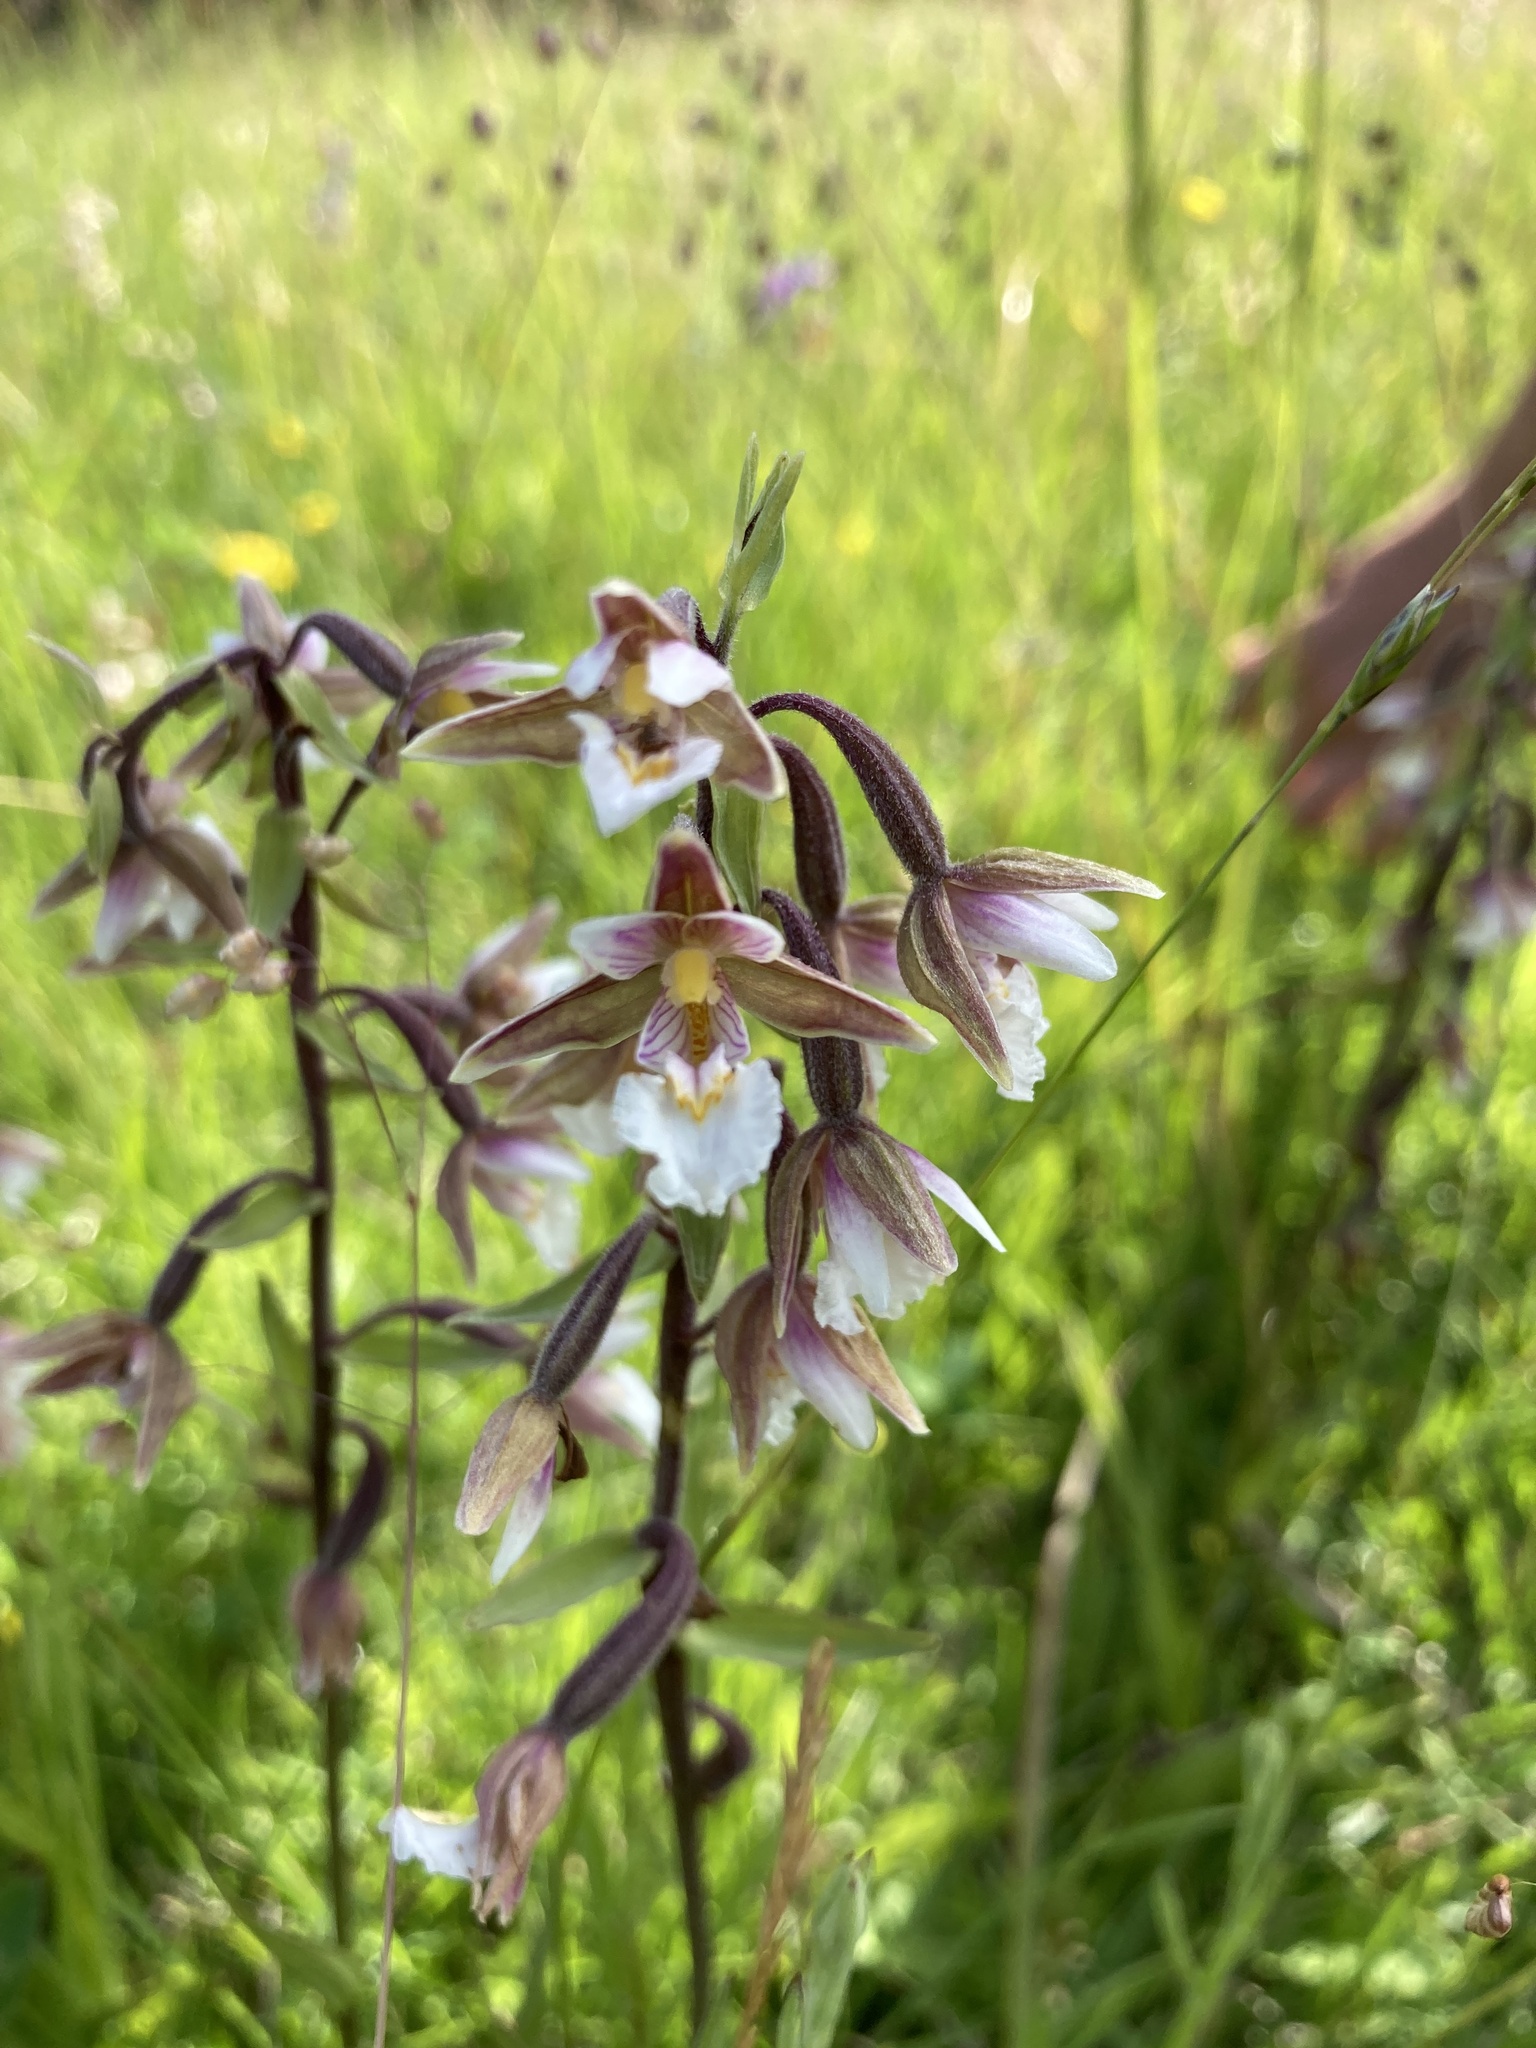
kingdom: Plantae
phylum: Tracheophyta
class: Liliopsida
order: Asparagales
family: Orchidaceae
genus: Epipactis
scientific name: Epipactis palustris
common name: Marsh helleborine
